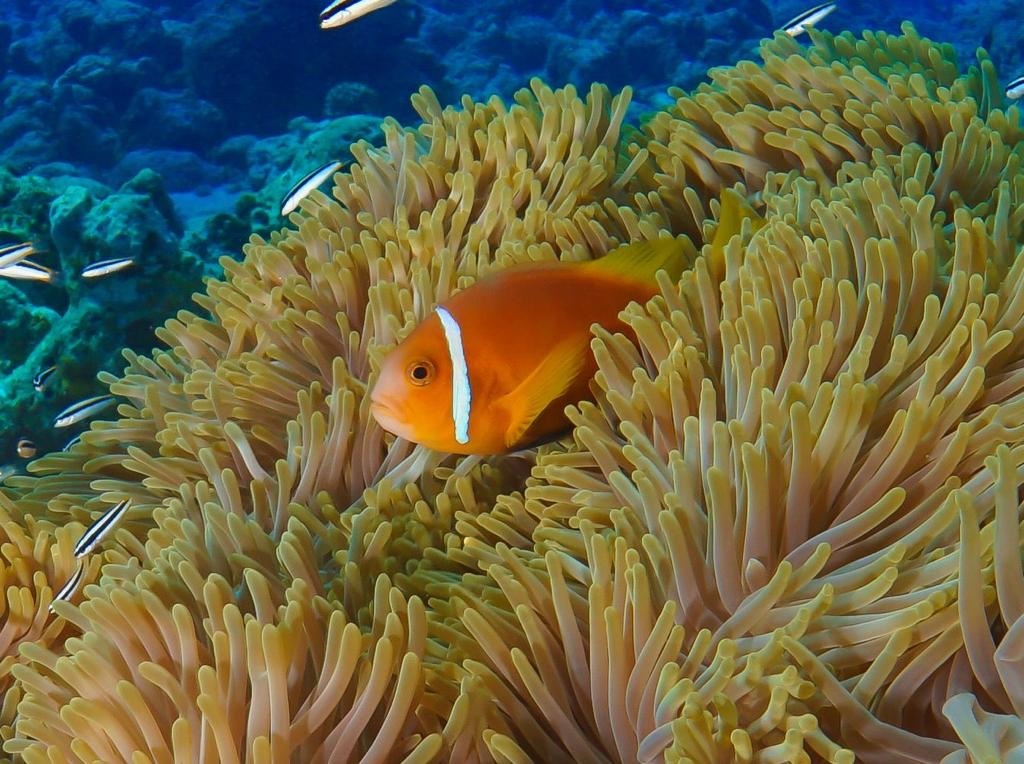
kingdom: Animalia
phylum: Chordata
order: Perciformes
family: Pomacentridae
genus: Amphiprion
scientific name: Amphiprion nigripes
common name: Maldive anemonefish
